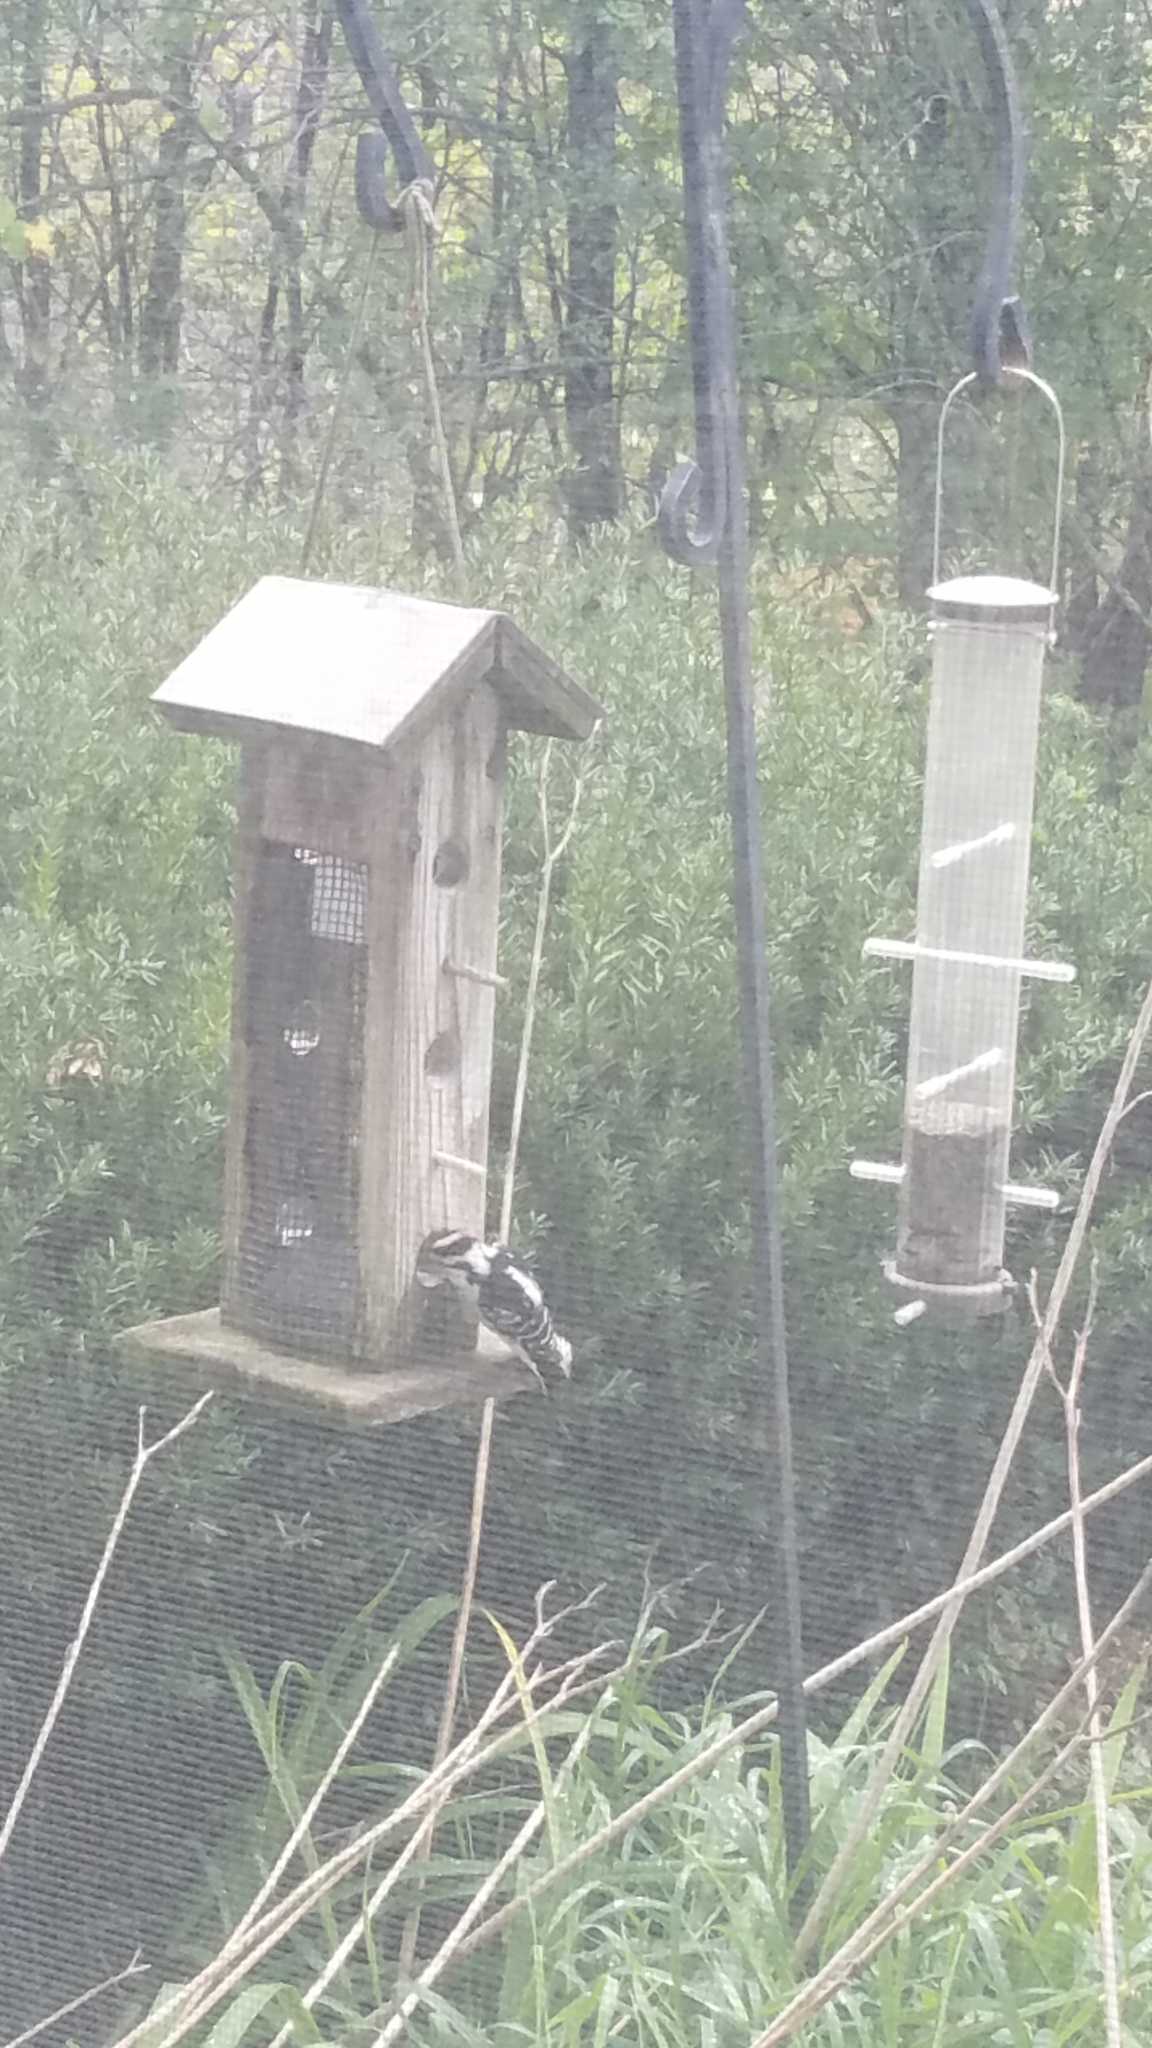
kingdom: Animalia
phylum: Chordata
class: Aves
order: Piciformes
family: Picidae
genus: Dryobates
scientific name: Dryobates pubescens
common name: Downy woodpecker
